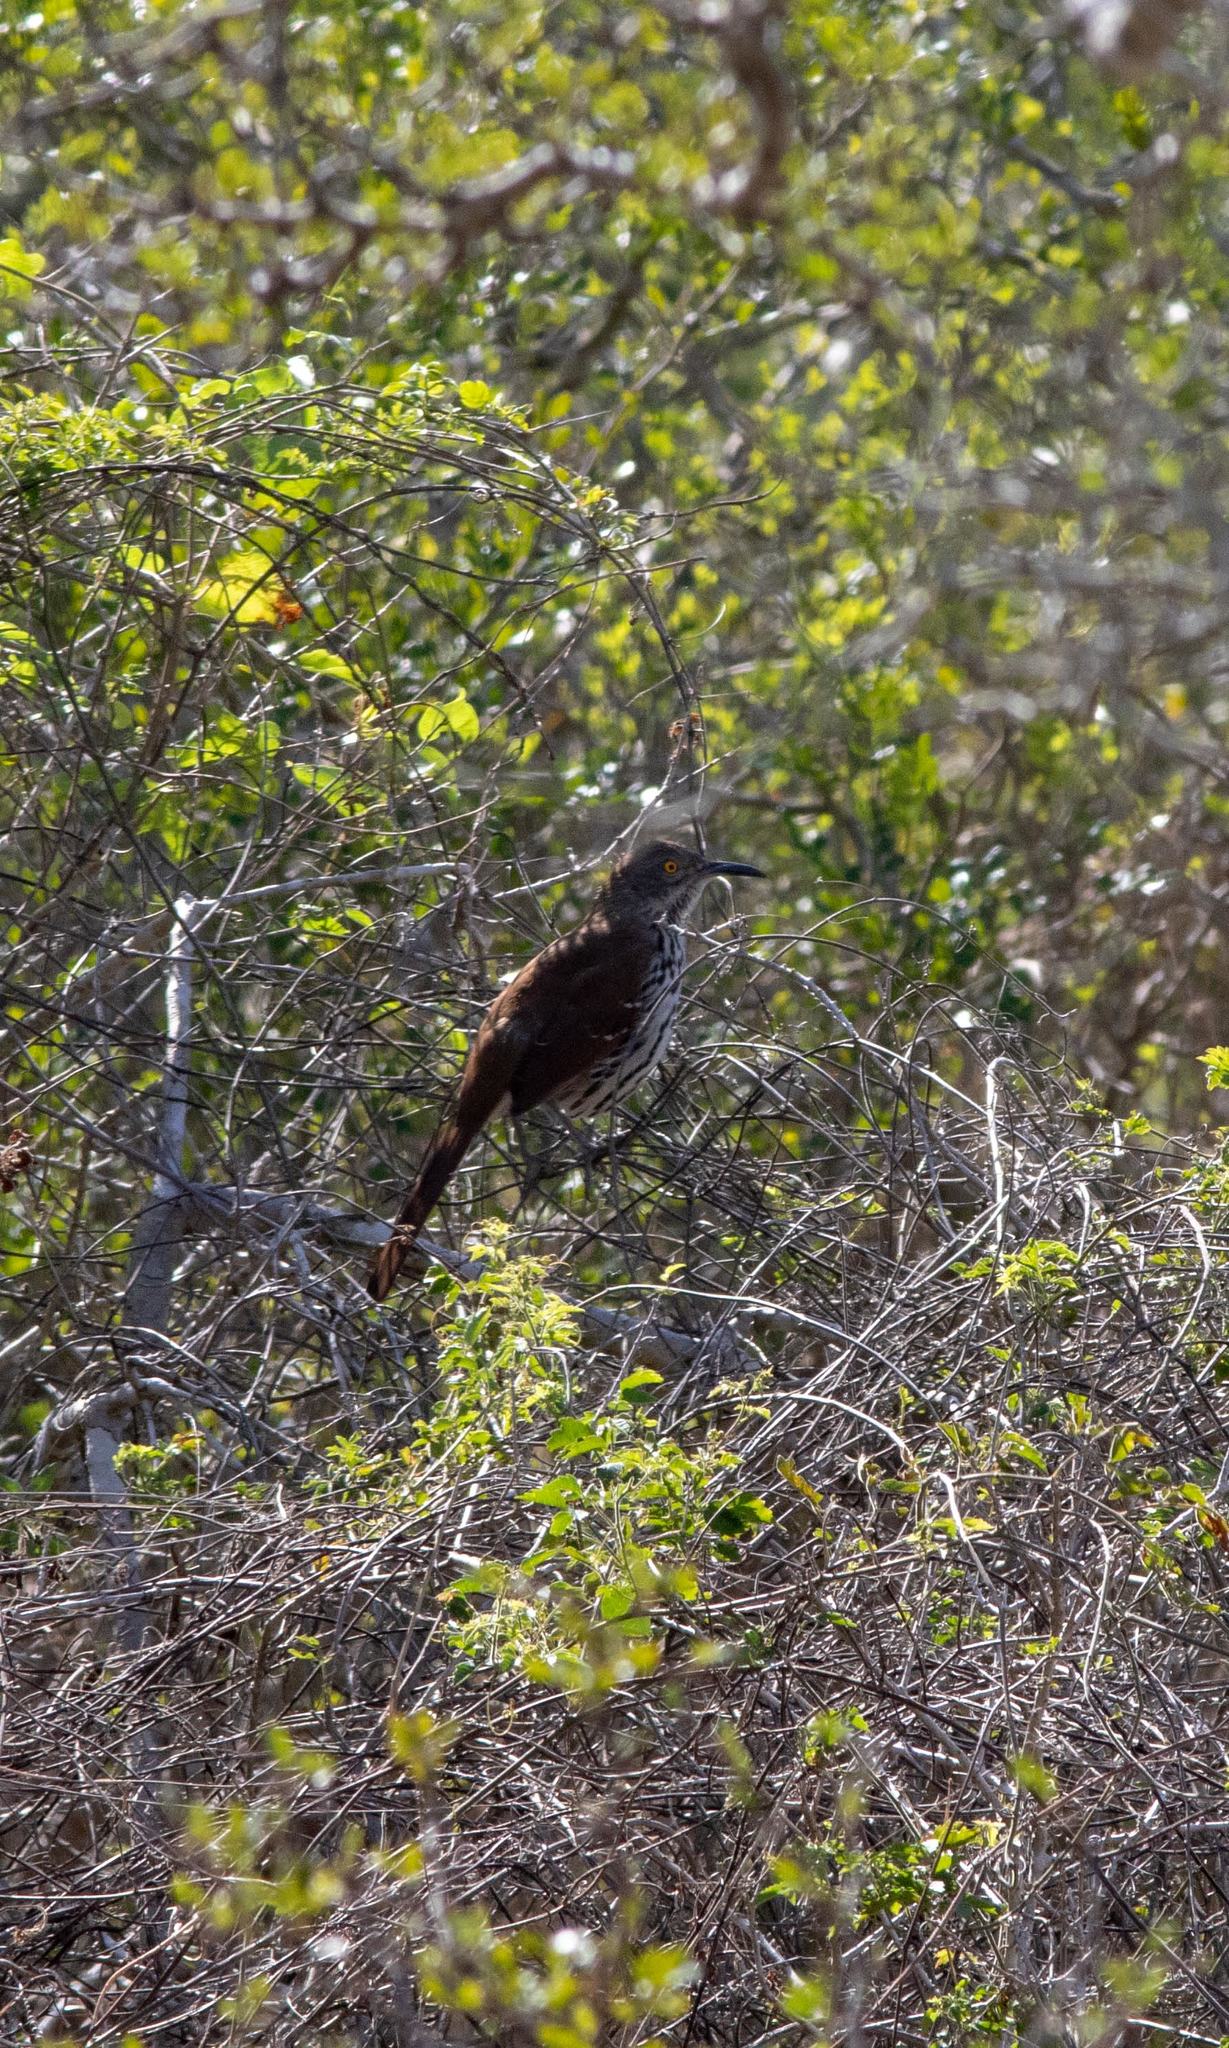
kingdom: Animalia
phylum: Chordata
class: Aves
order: Passeriformes
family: Mimidae
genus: Toxostoma
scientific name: Toxostoma longirostre
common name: Long-billed thrasher
